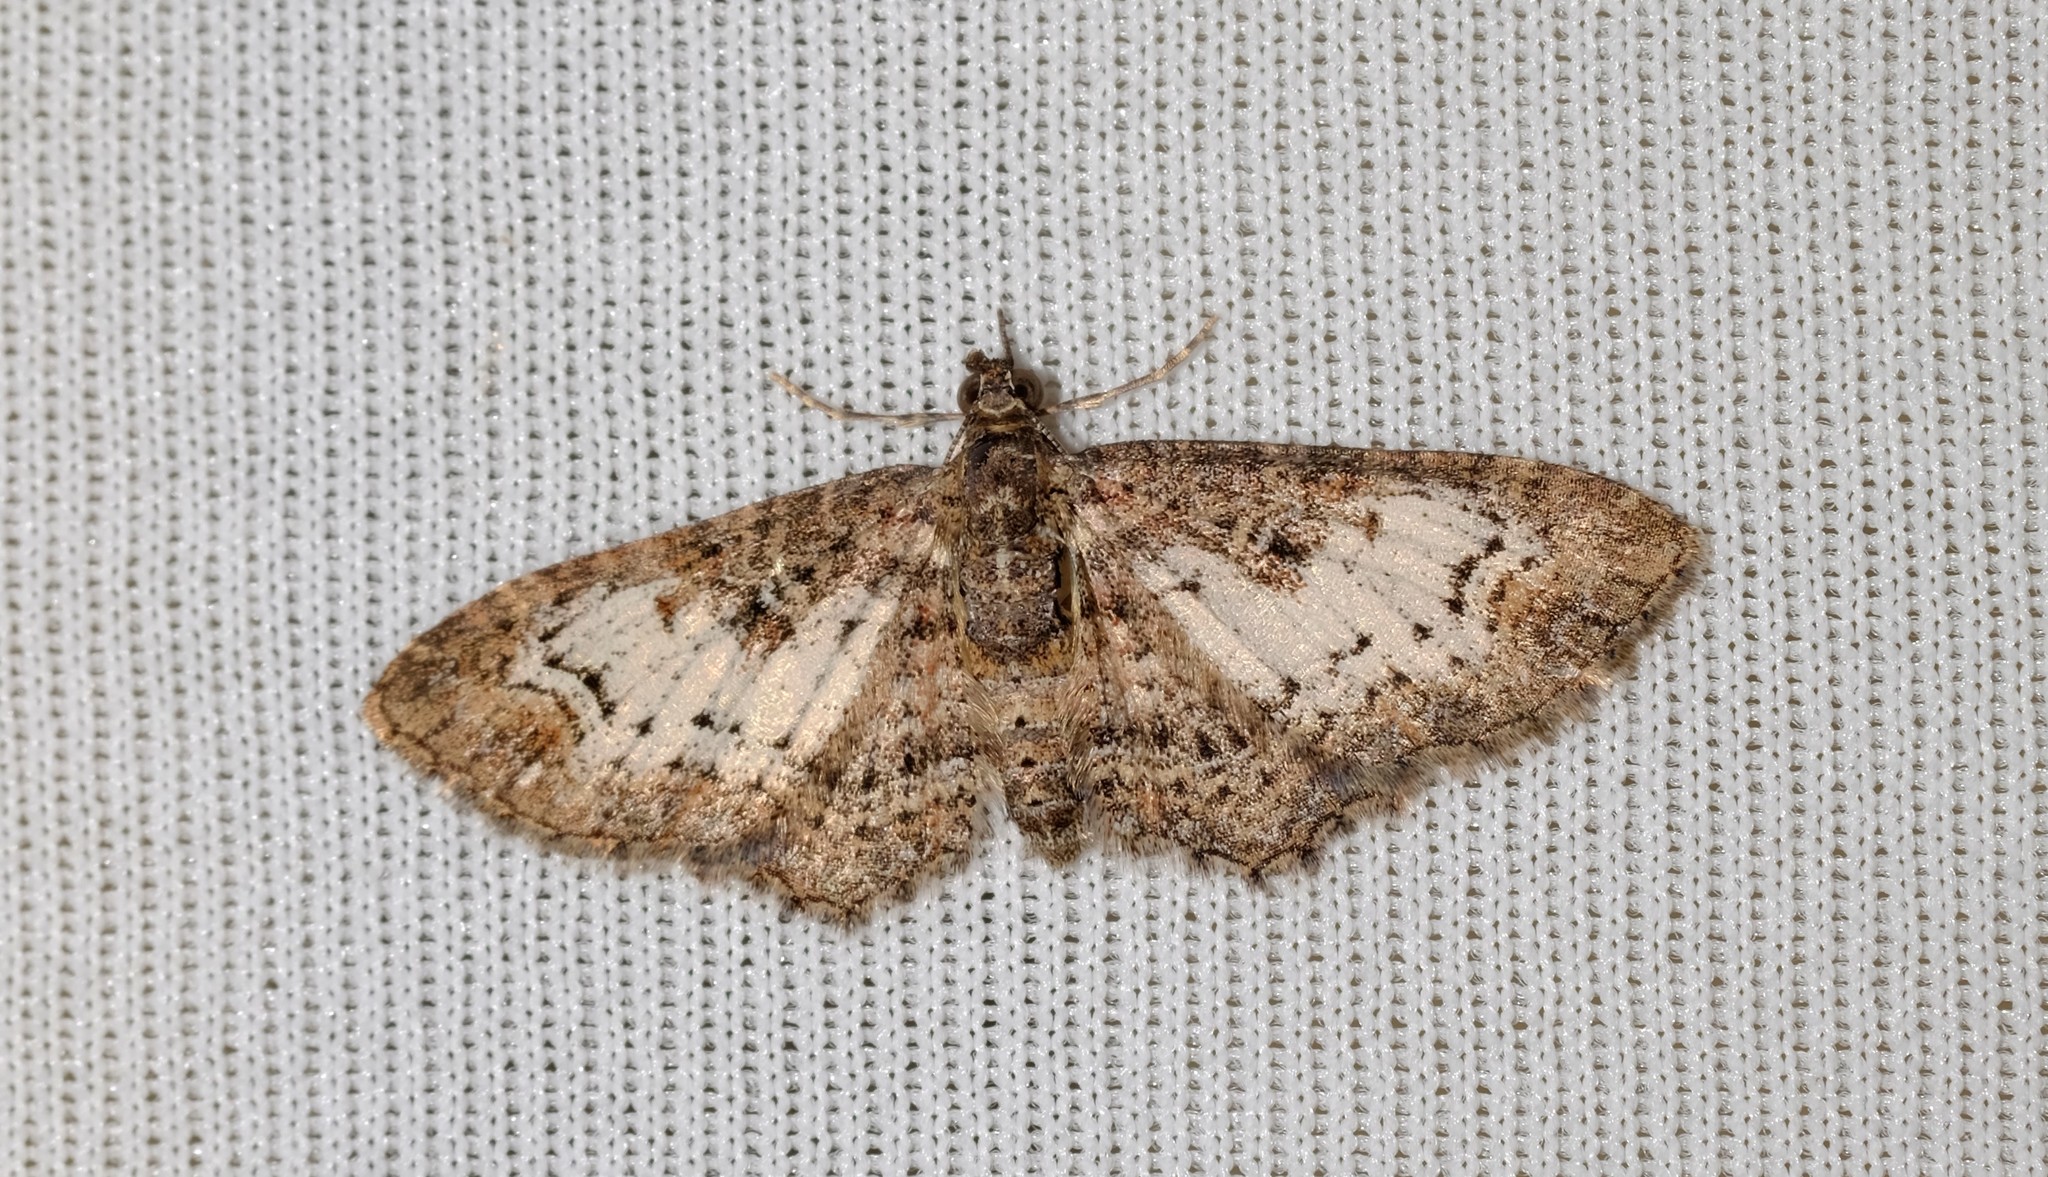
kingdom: Animalia
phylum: Arthropoda
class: Insecta
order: Lepidoptera
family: Geometridae
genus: Pasiphilodes
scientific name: Pasiphilodes testulata
